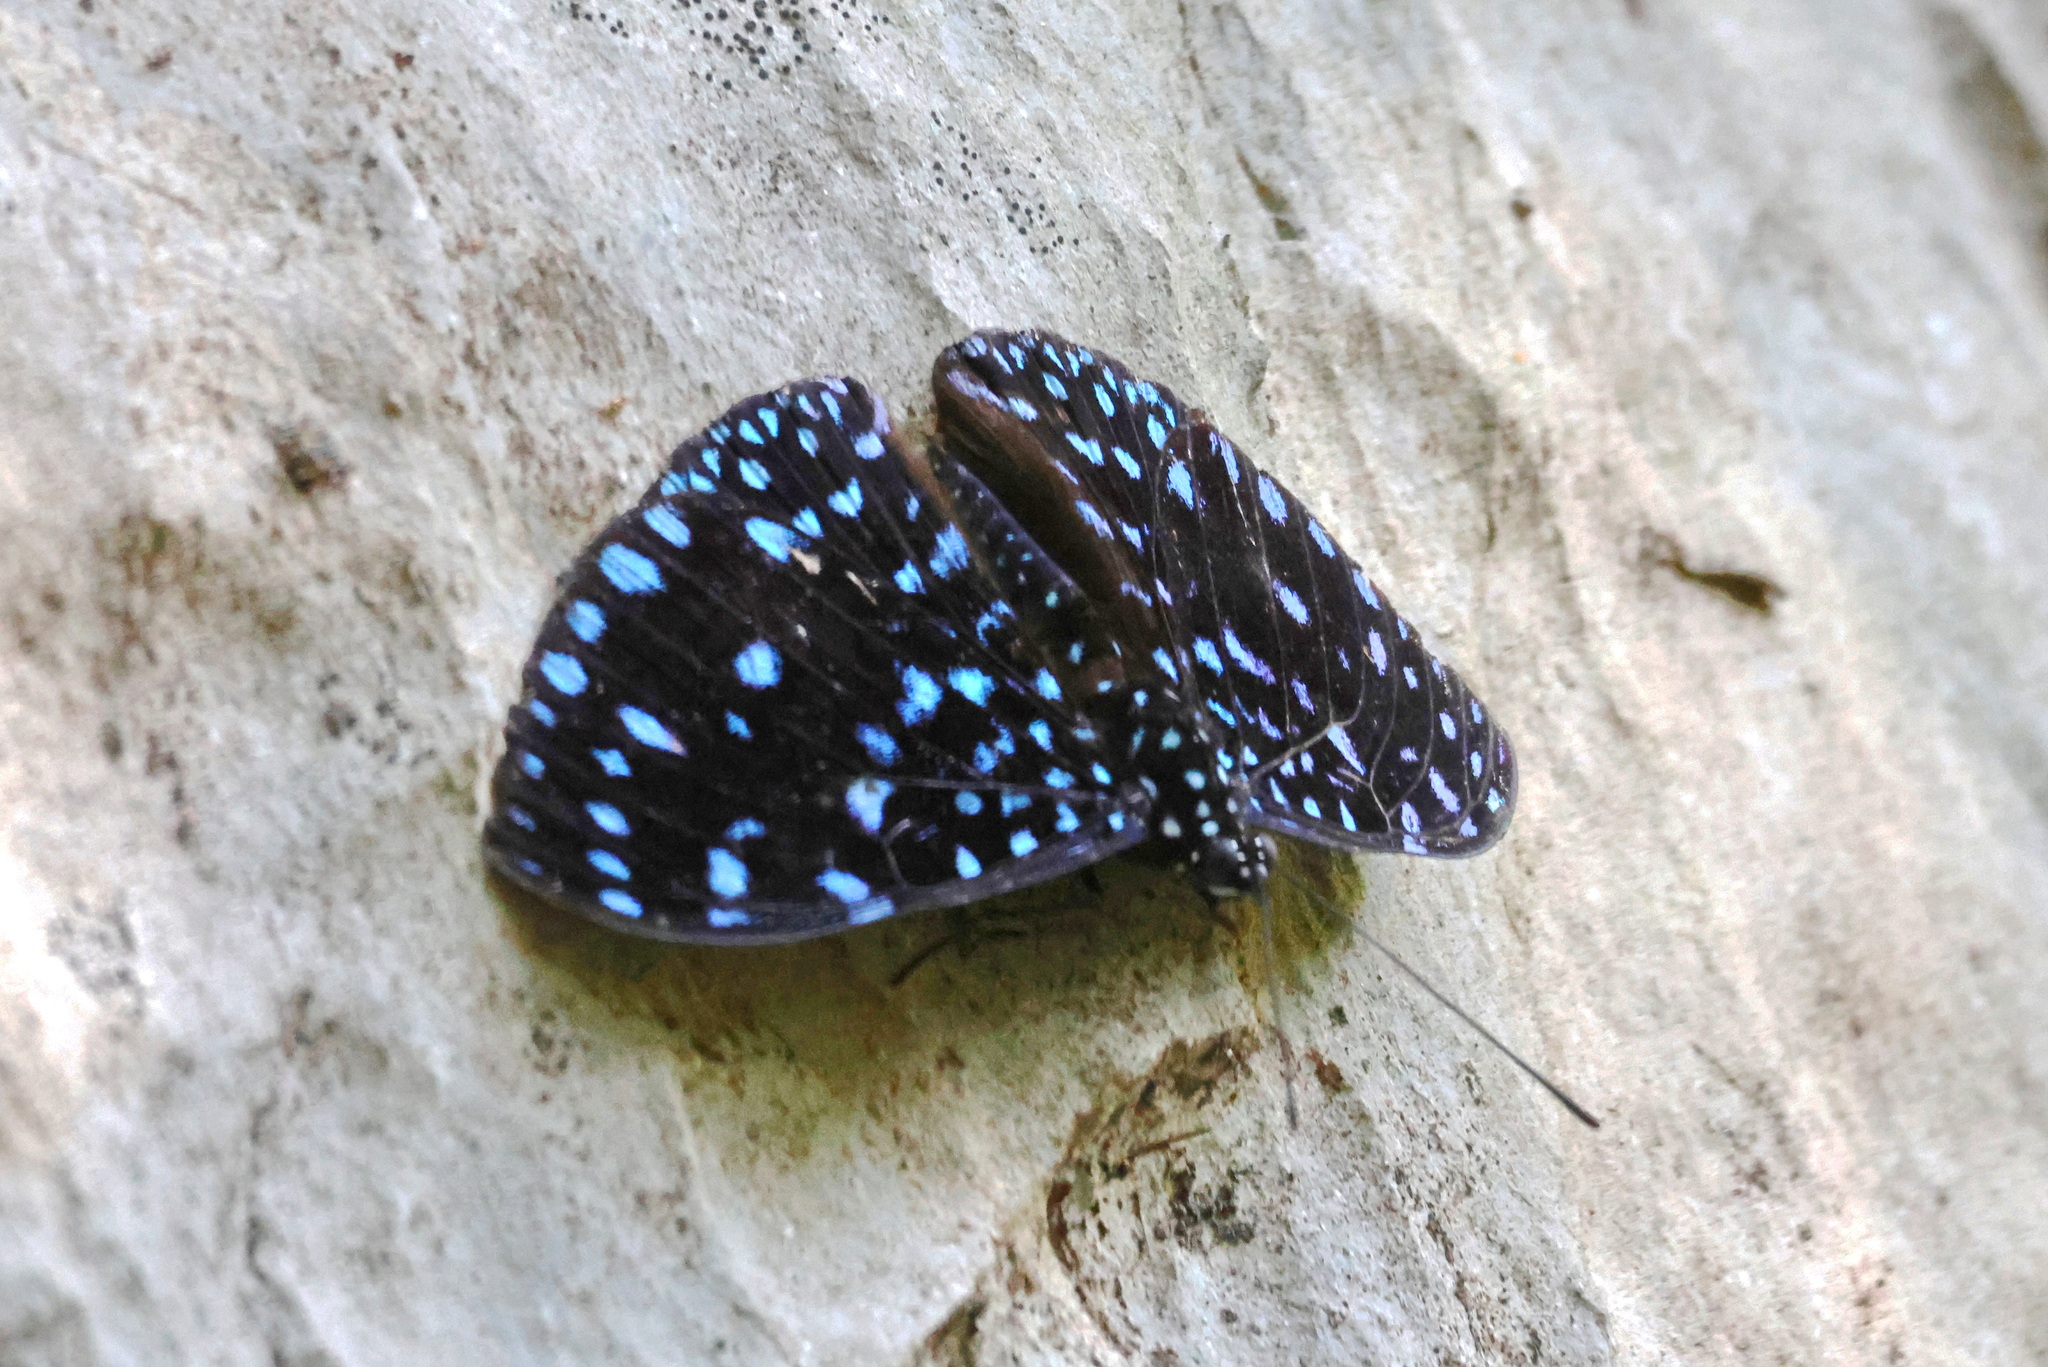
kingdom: Animalia
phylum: Arthropoda
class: Insecta
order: Lepidoptera
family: Nymphalidae
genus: Hamadryas
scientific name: Hamadryas laodamia
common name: Starry night cracker
